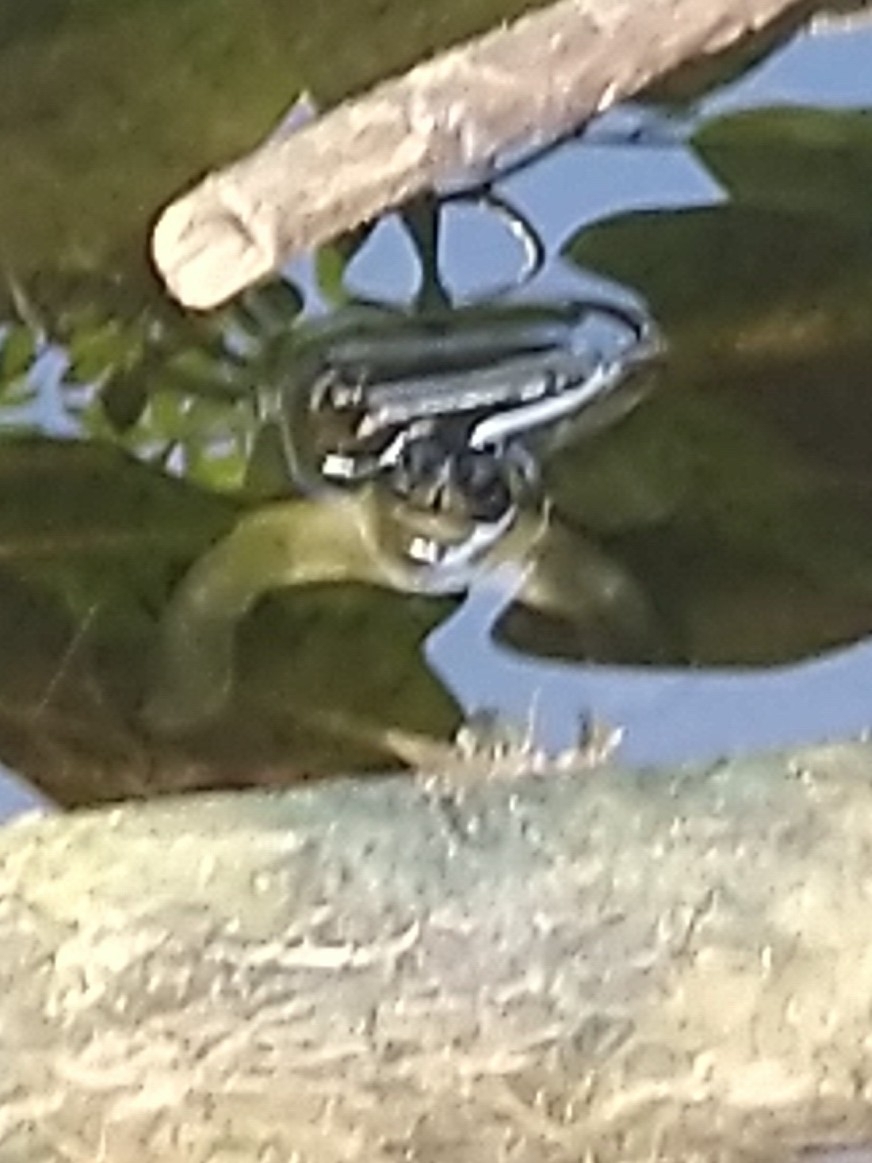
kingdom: Animalia
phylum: Chordata
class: Testudines
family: Geoemydidae
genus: Melanochelys
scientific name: Melanochelys trijuga
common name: Indian black turtle
